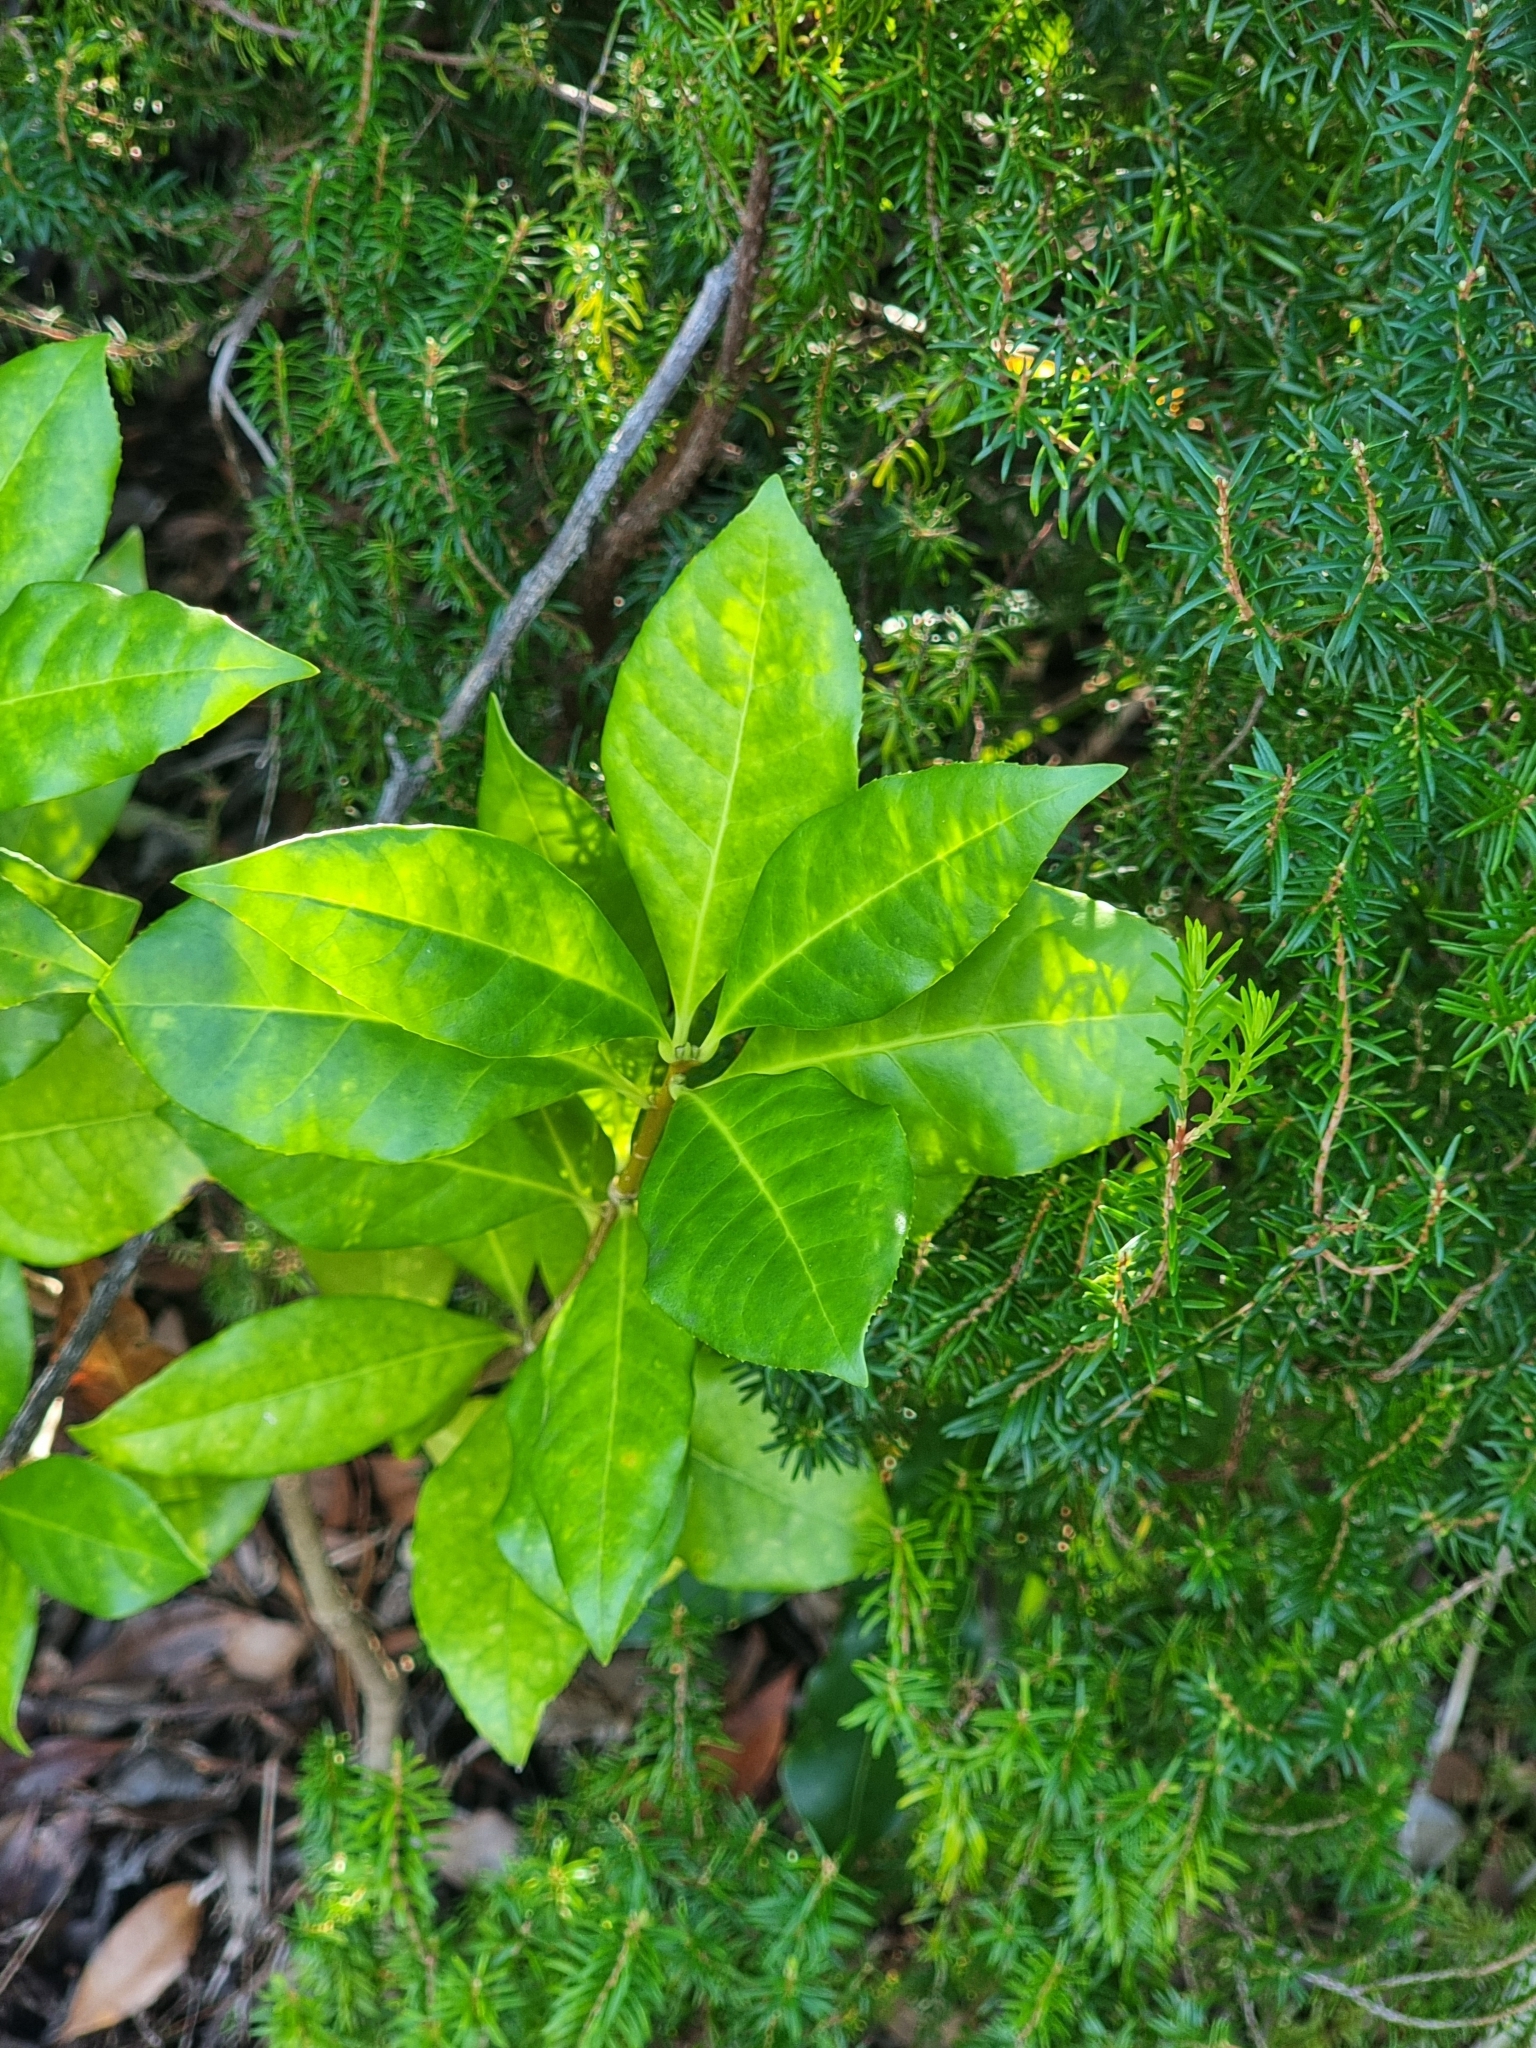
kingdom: Plantae
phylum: Tracheophyta
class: Magnoliopsida
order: Lamiales
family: Oleaceae
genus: Picconia
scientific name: Picconia excelsa
